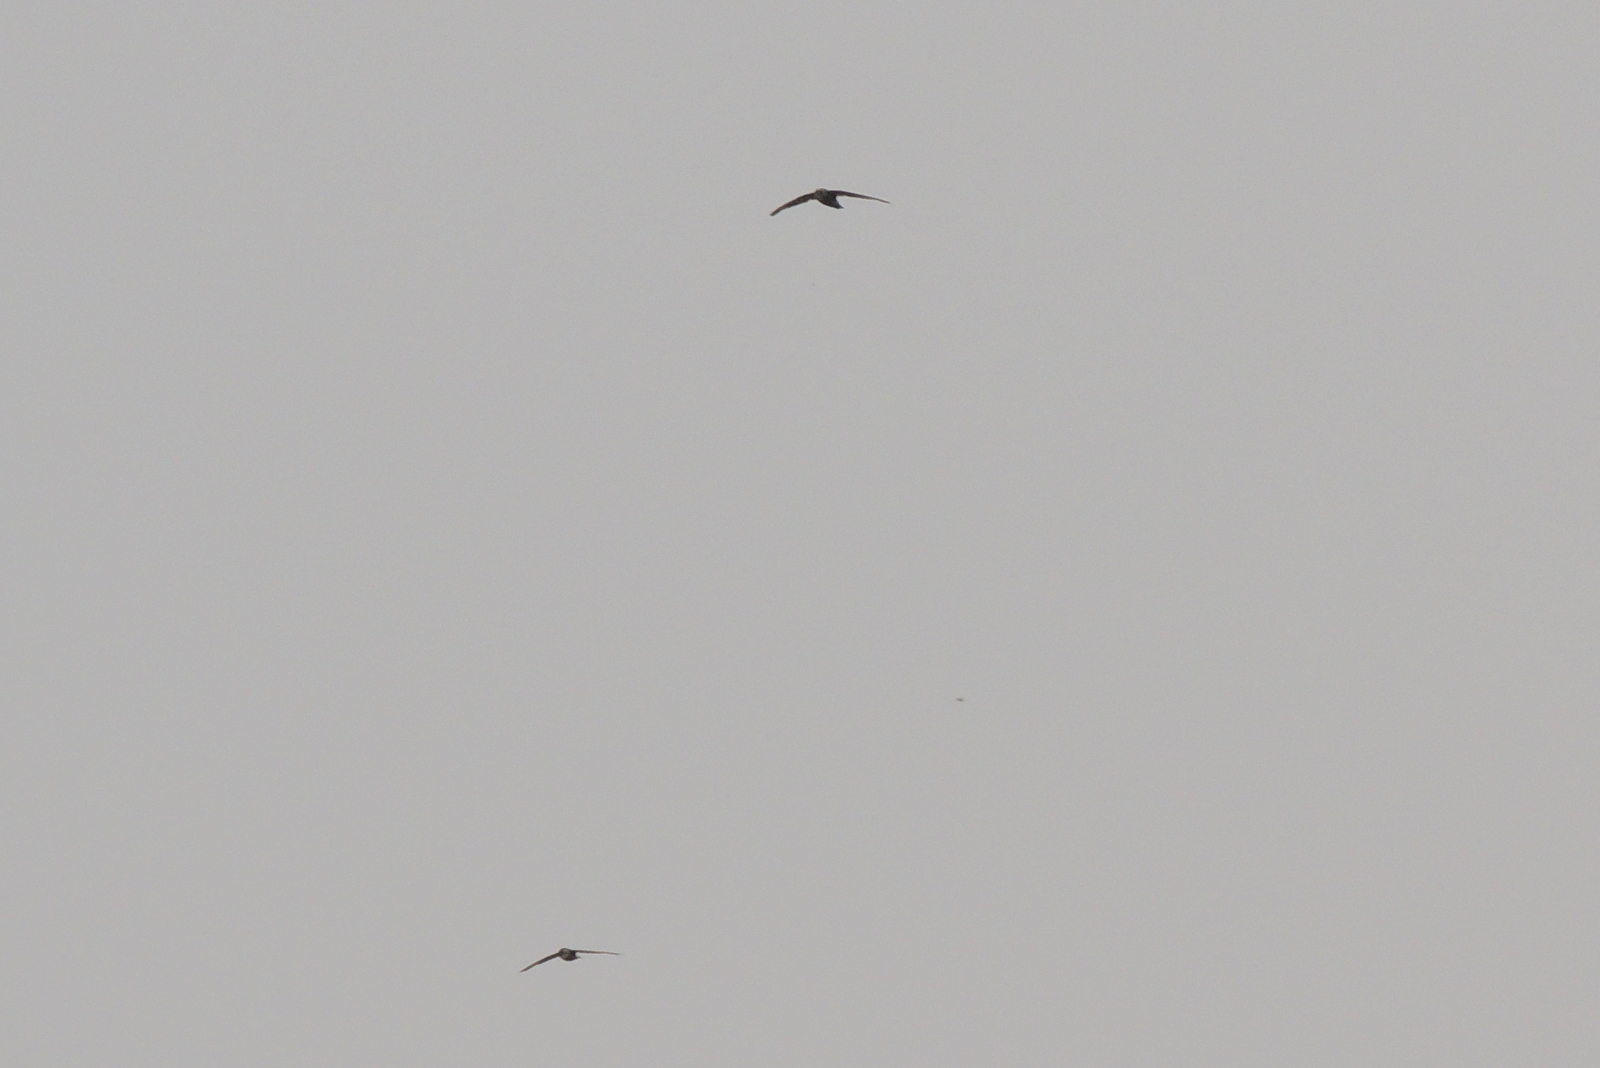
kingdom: Animalia
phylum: Chordata
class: Aves
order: Apodiformes
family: Apodidae
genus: Apus
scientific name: Apus affinis
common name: Little swift
